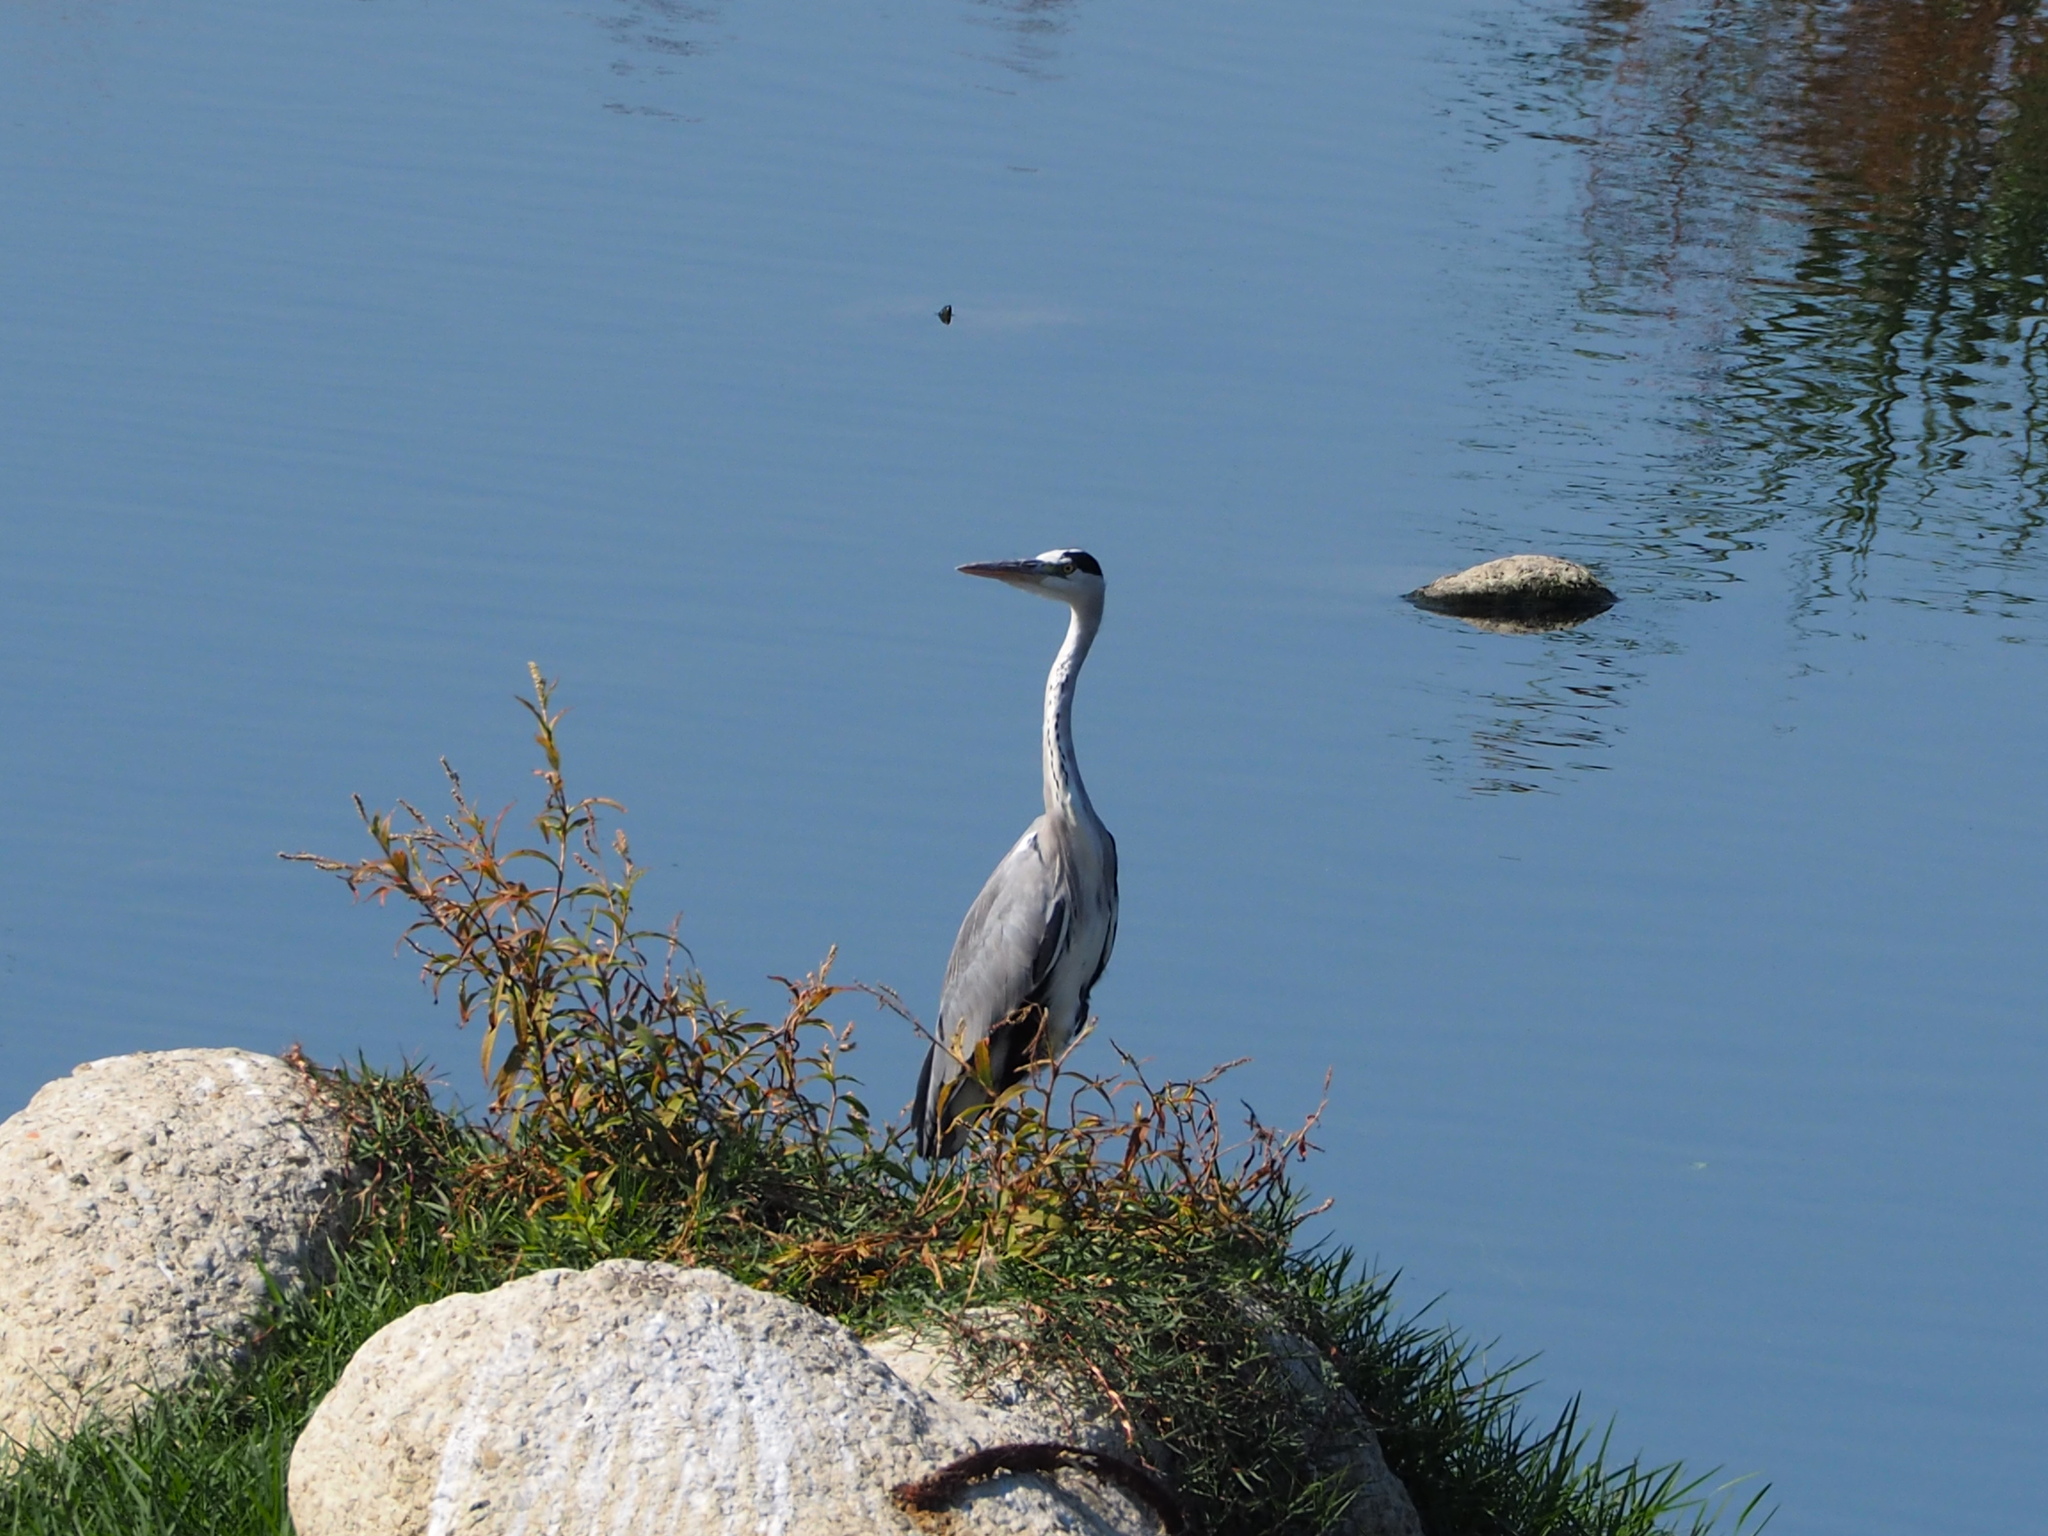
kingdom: Animalia
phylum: Chordata
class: Aves
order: Pelecaniformes
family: Ardeidae
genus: Ardea
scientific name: Ardea cinerea
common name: Grey heron
